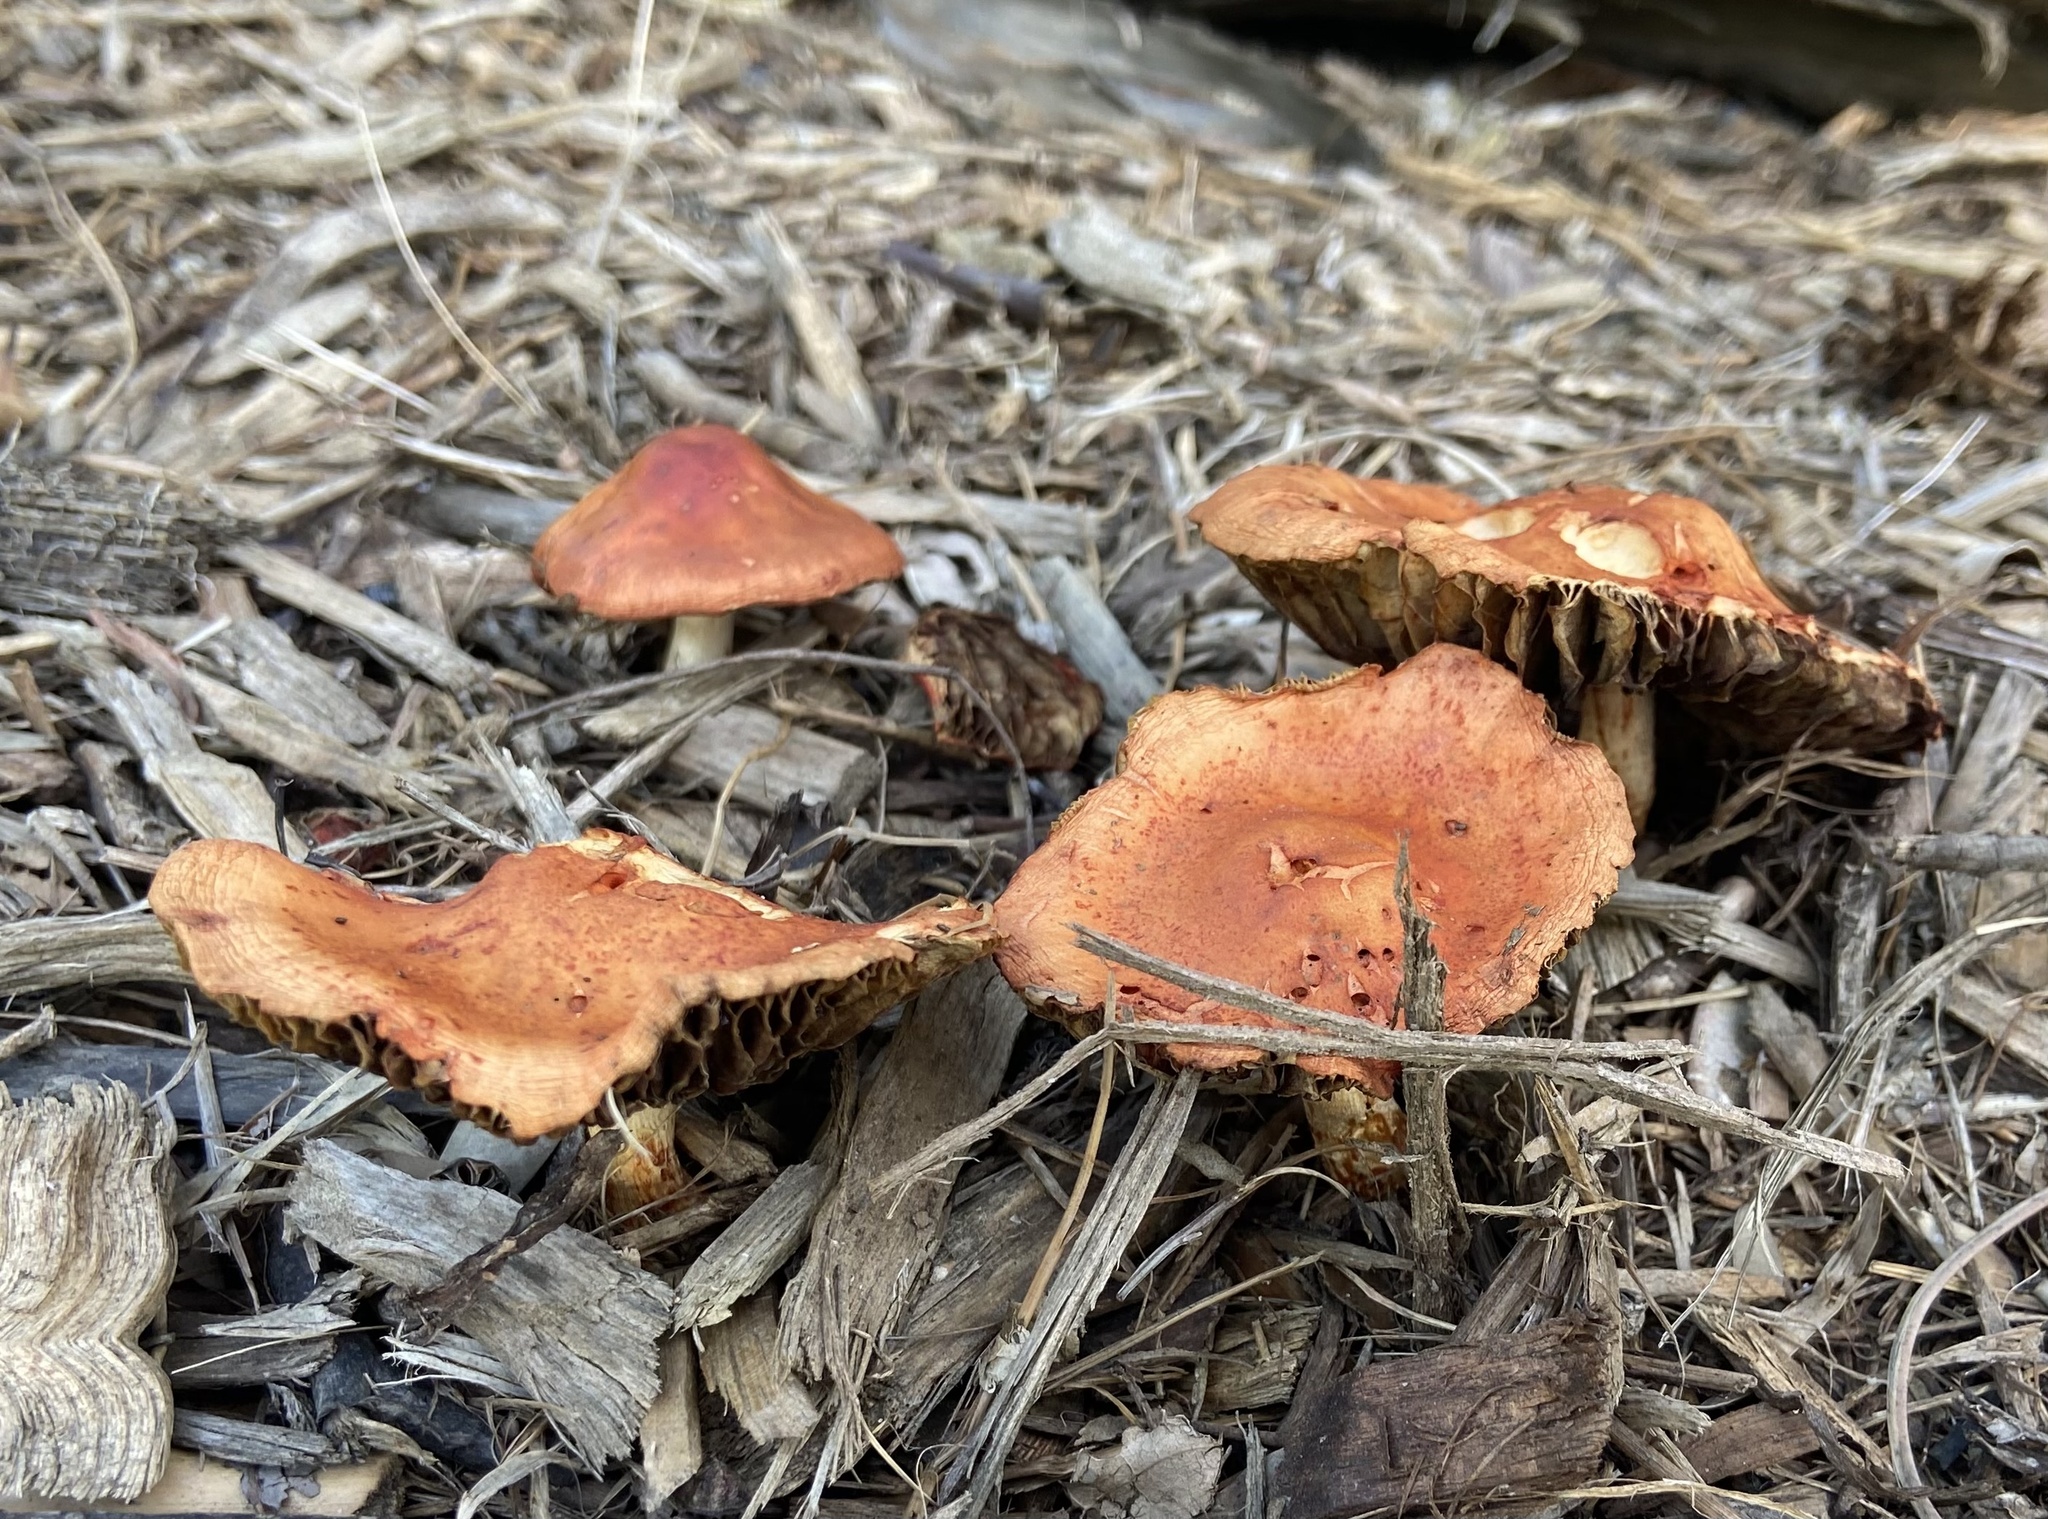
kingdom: Fungi
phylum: Basidiomycota
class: Agaricomycetes
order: Agaricales
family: Strophariaceae
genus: Leratiomyces
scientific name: Leratiomyces ceres
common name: Redlead roundhead
